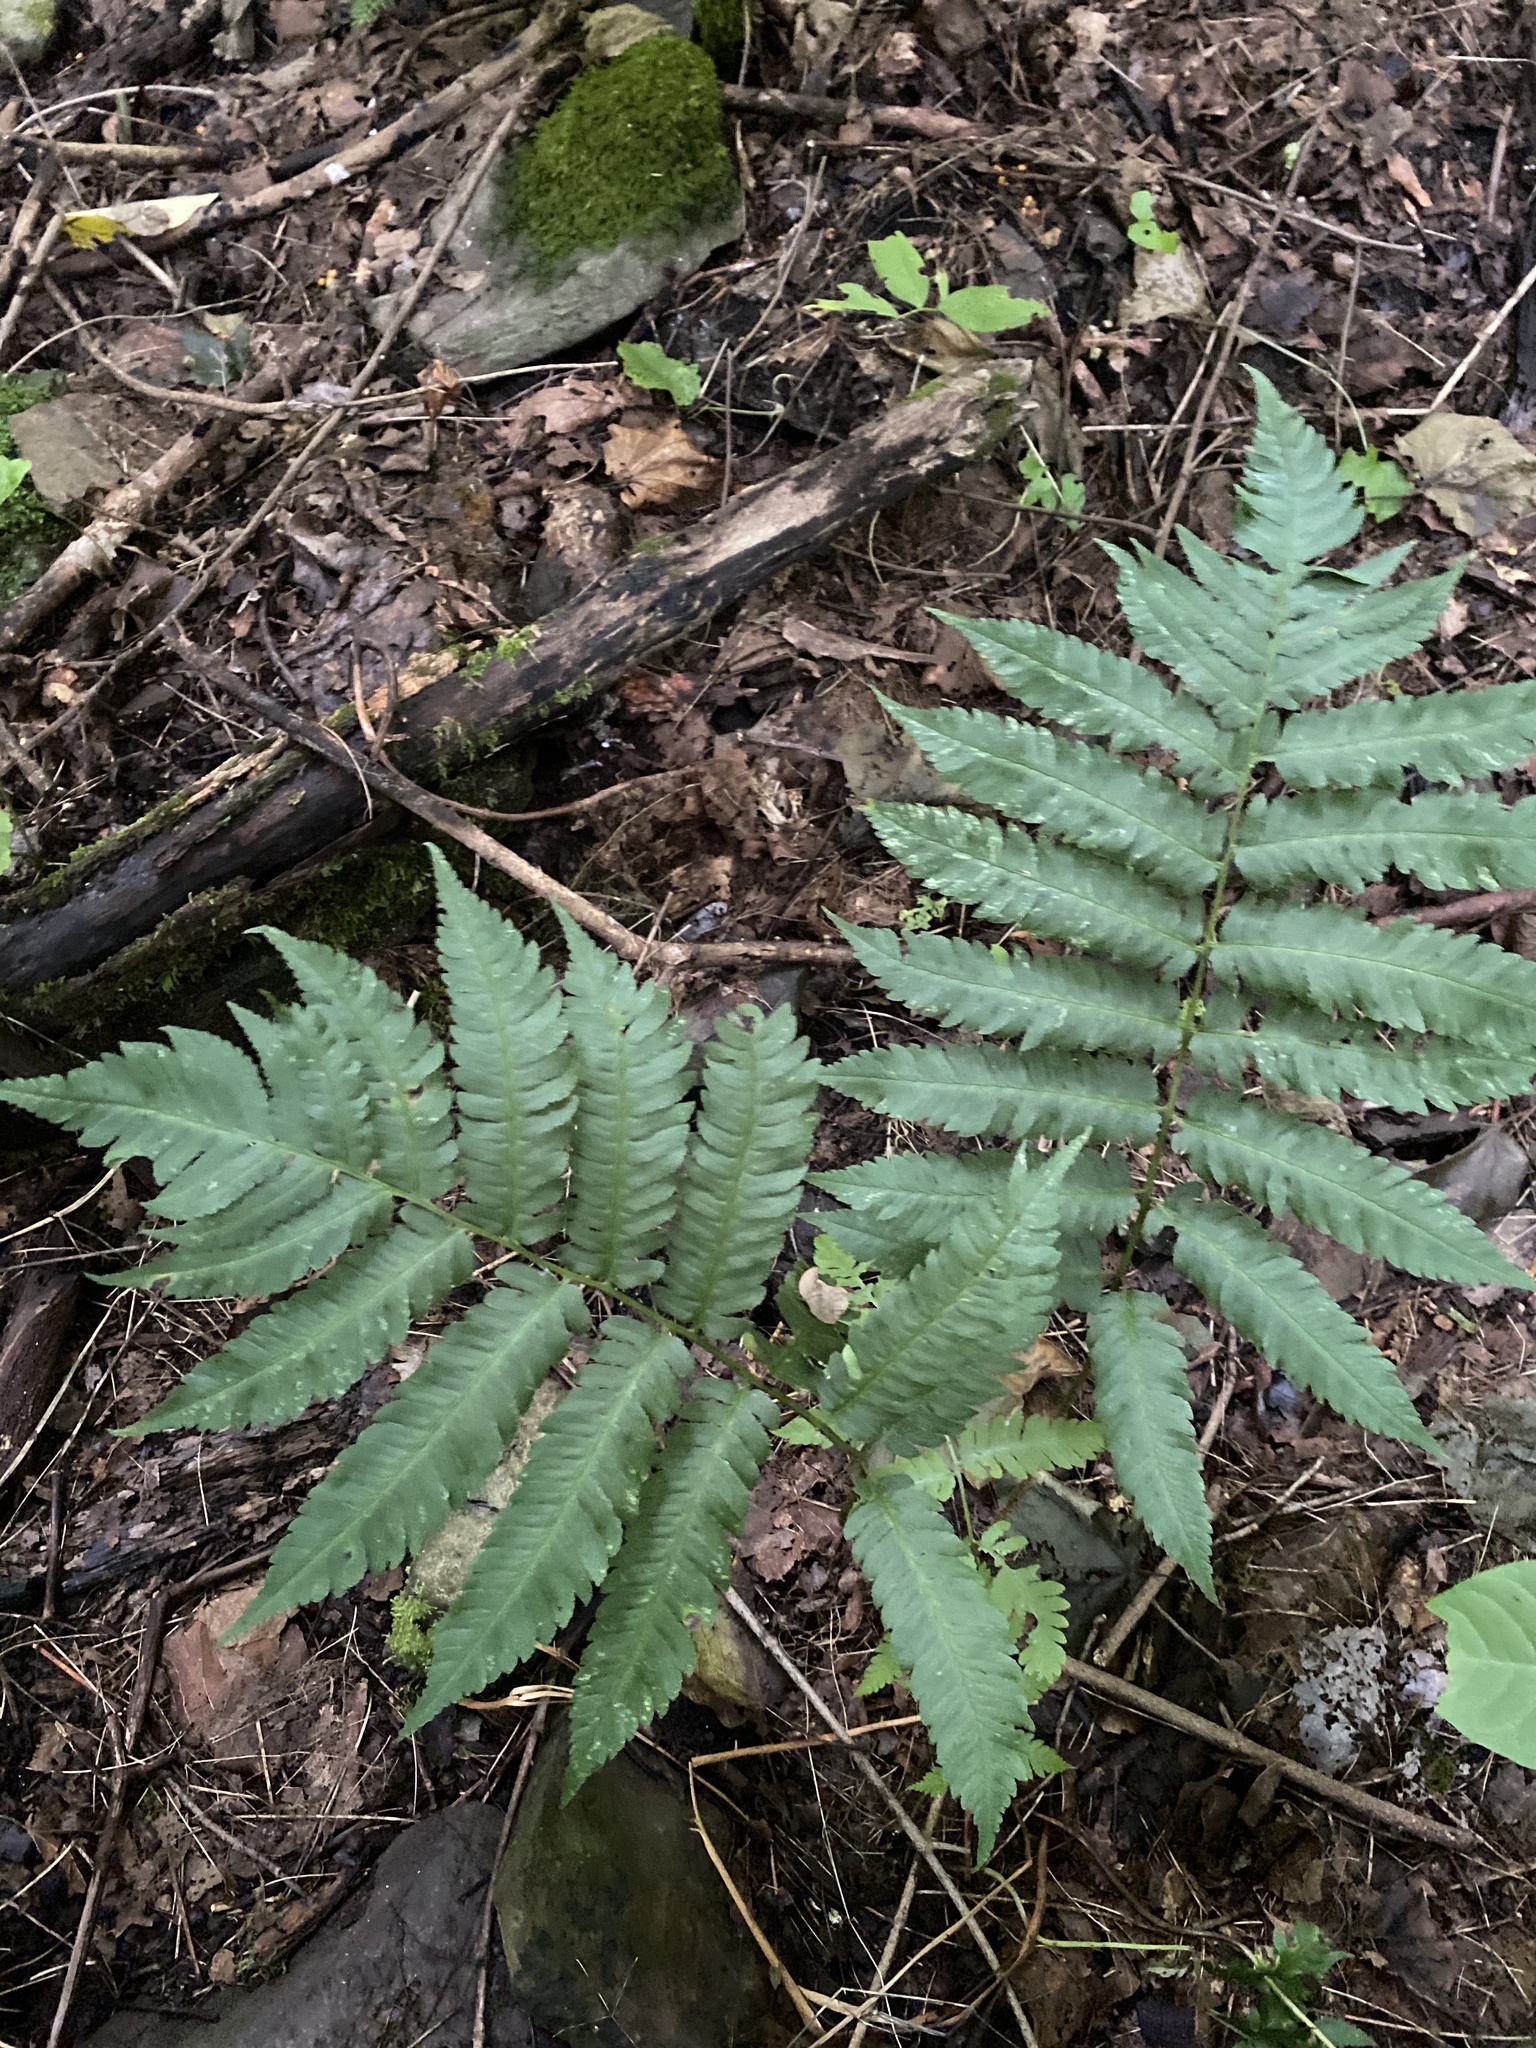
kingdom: Plantae
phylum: Tracheophyta
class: Polypodiopsida
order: Polypodiales
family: Dryopteridaceae
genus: Dryopteris
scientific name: Dryopteris goldieana
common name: Goldie's fern
